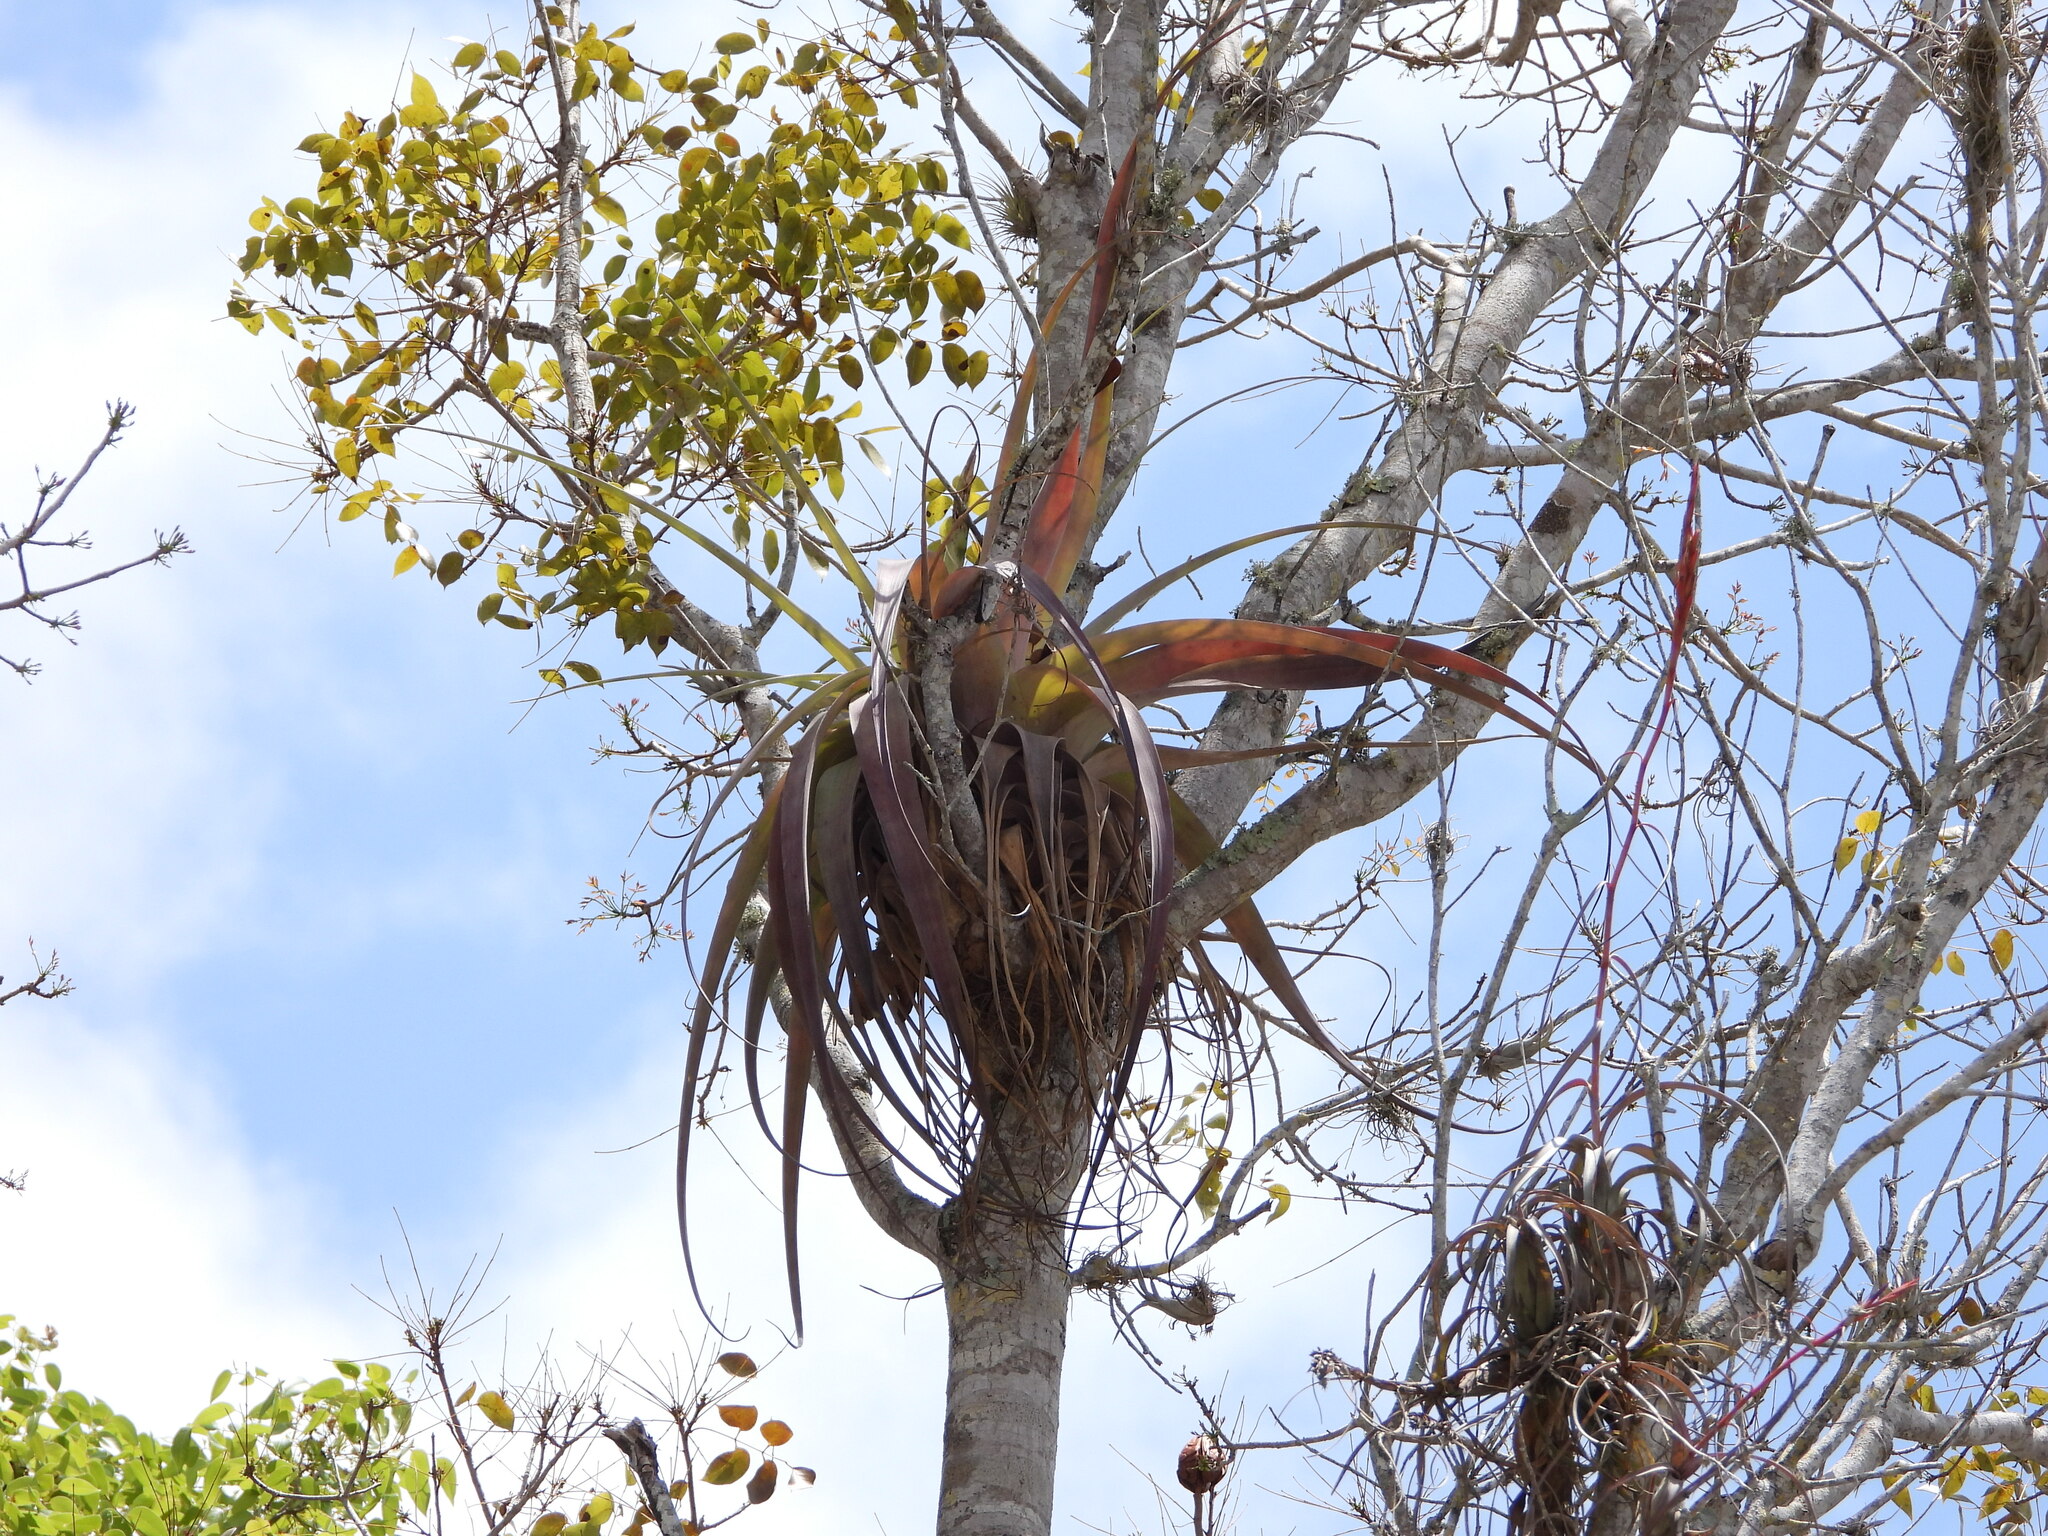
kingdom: Plantae
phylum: Tracheophyta
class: Liliopsida
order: Poales
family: Bromeliaceae
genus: Tillandsia
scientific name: Tillandsia utriculata
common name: Wild pine
